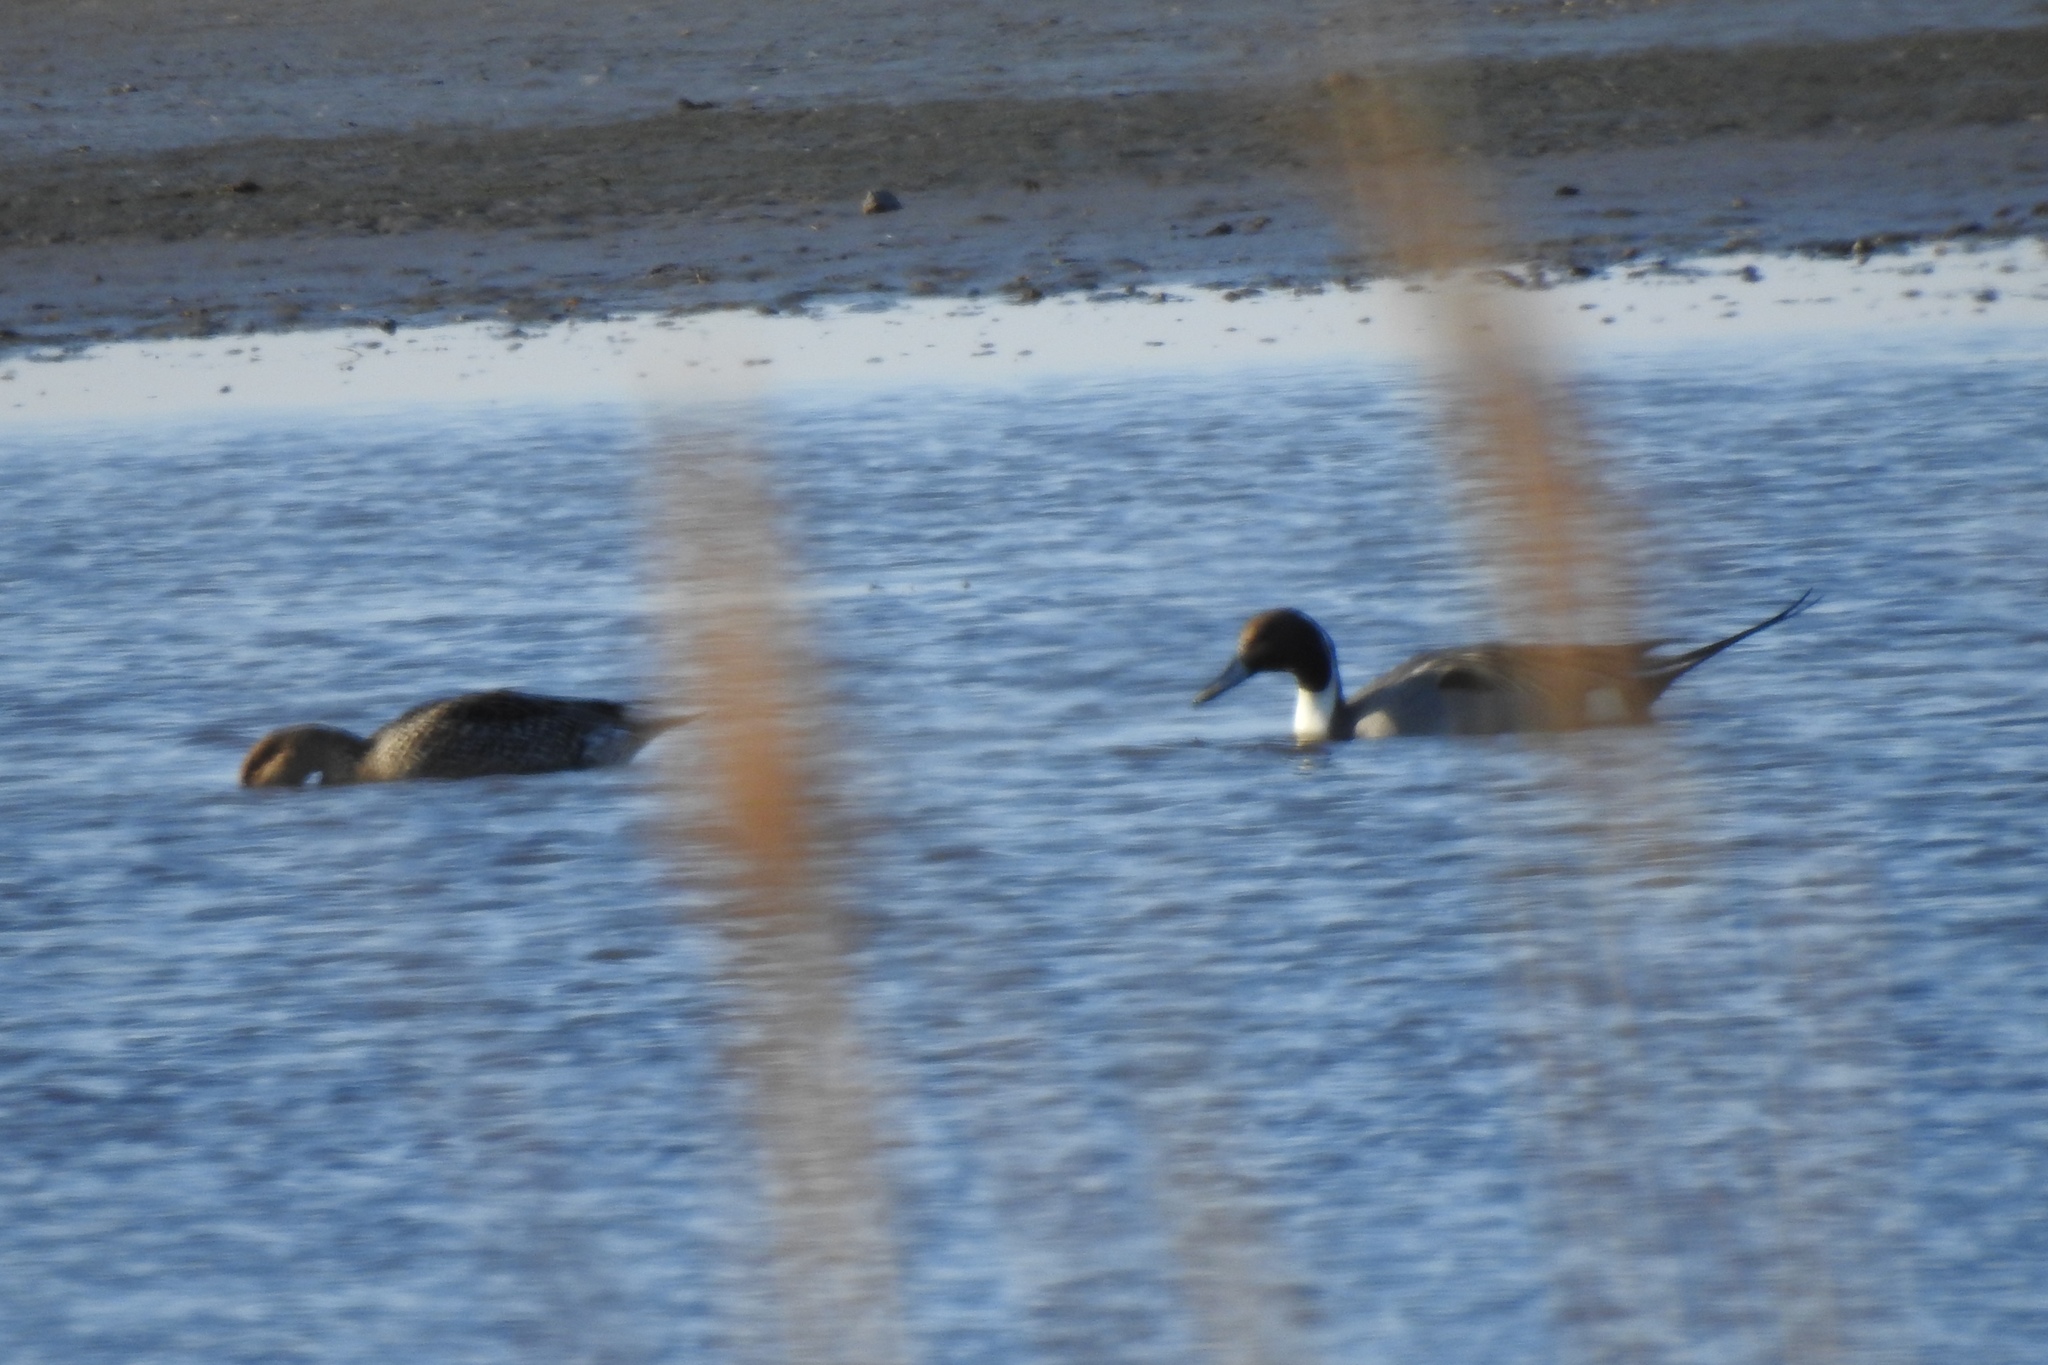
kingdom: Animalia
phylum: Chordata
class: Aves
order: Anseriformes
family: Anatidae
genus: Anas
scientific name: Anas acuta
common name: Northern pintail
